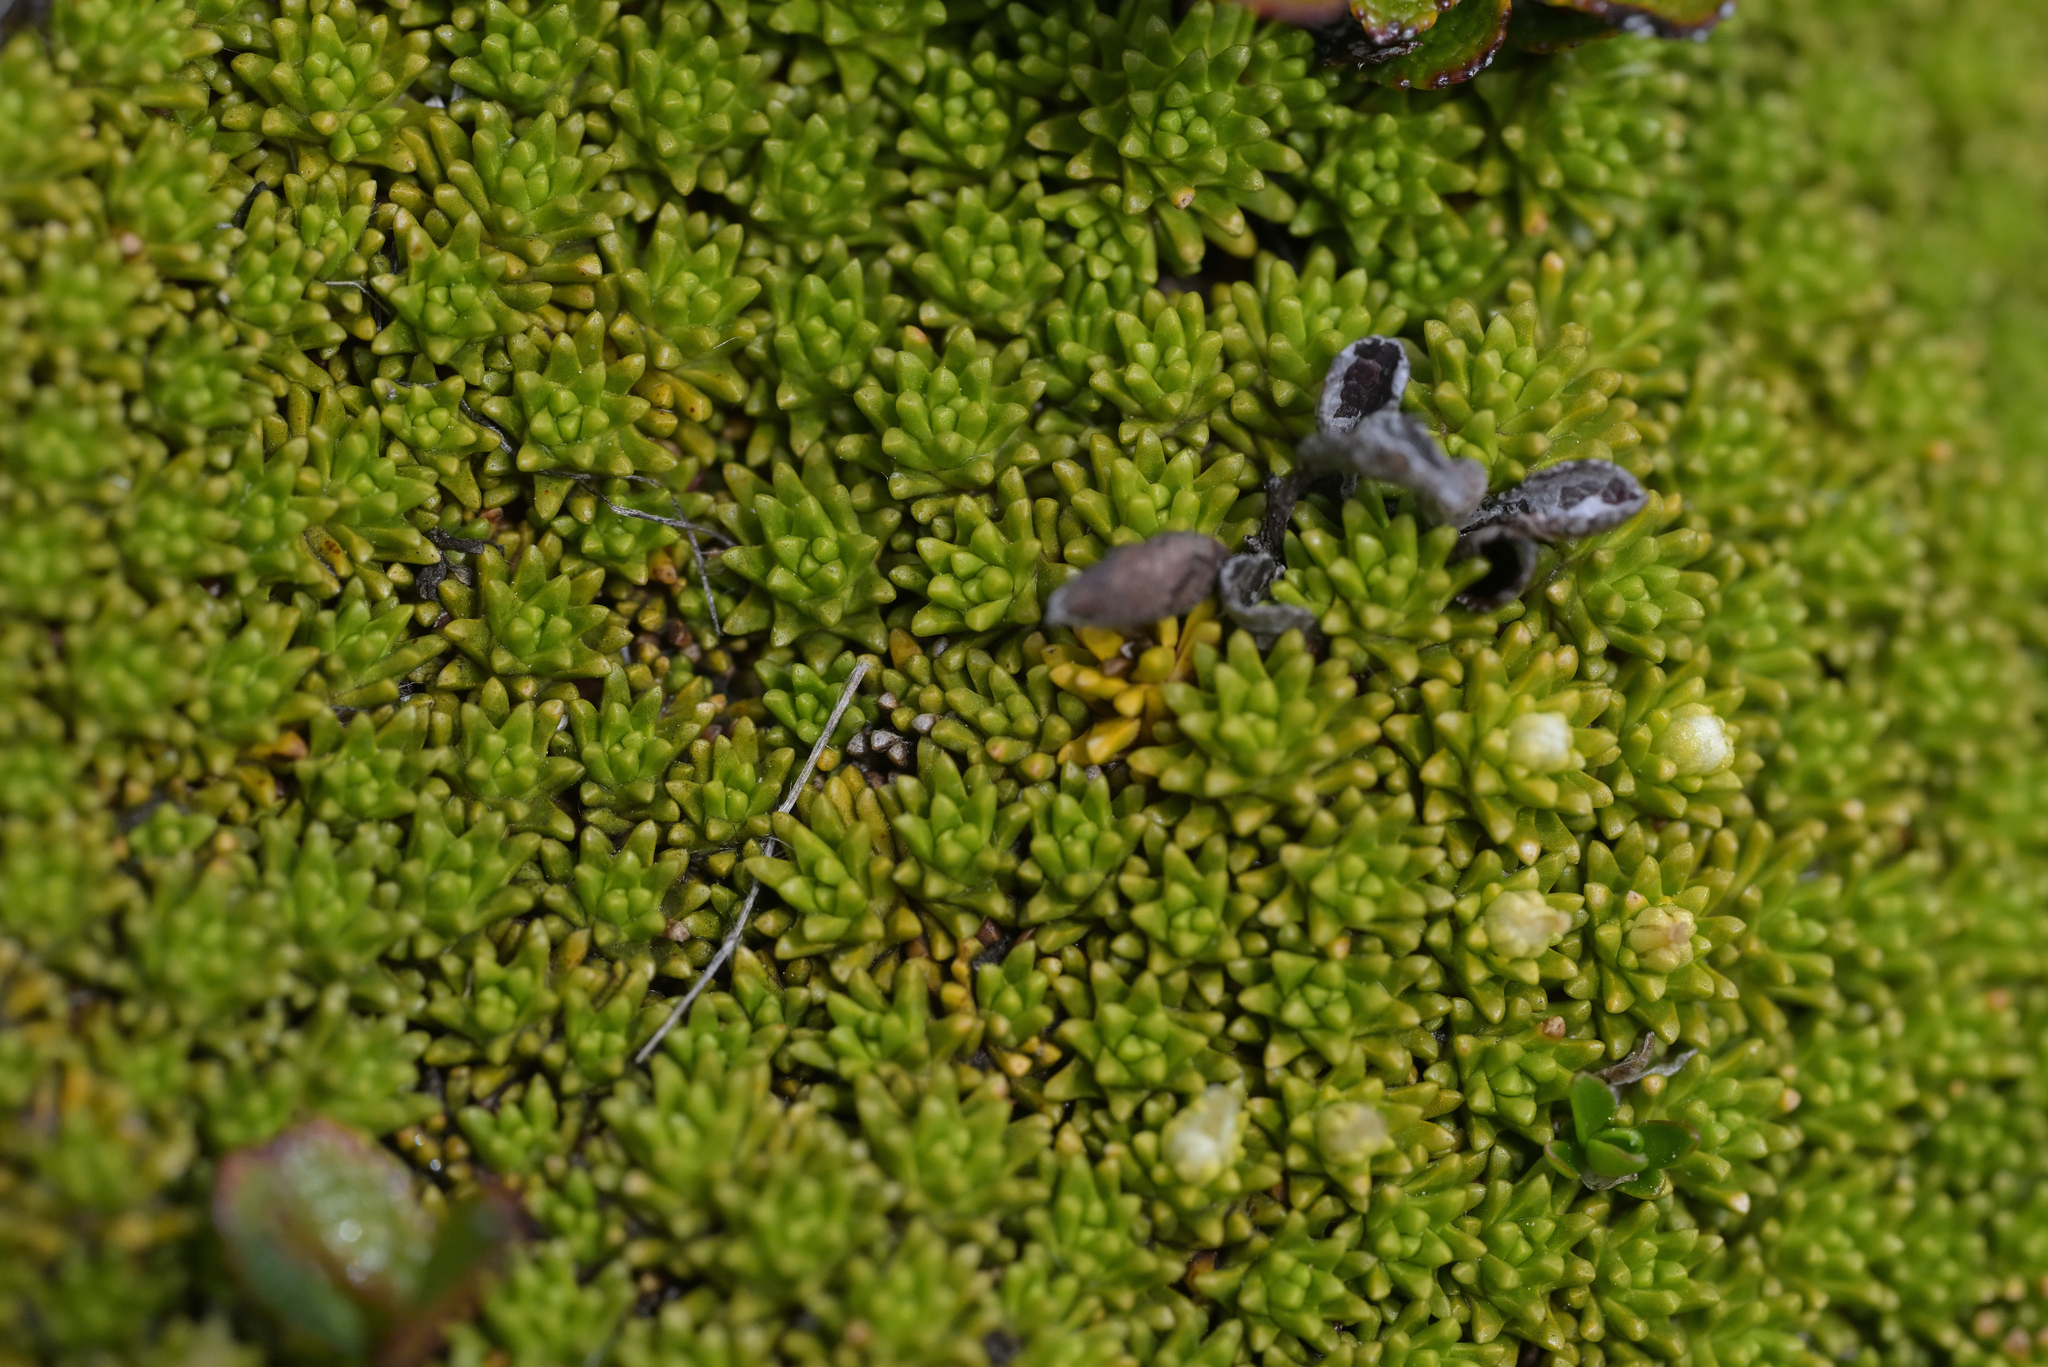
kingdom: Plantae
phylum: Tracheophyta
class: Magnoliopsida
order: Asterales
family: Stylidiaceae
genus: Phyllachne
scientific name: Phyllachne colensoi
